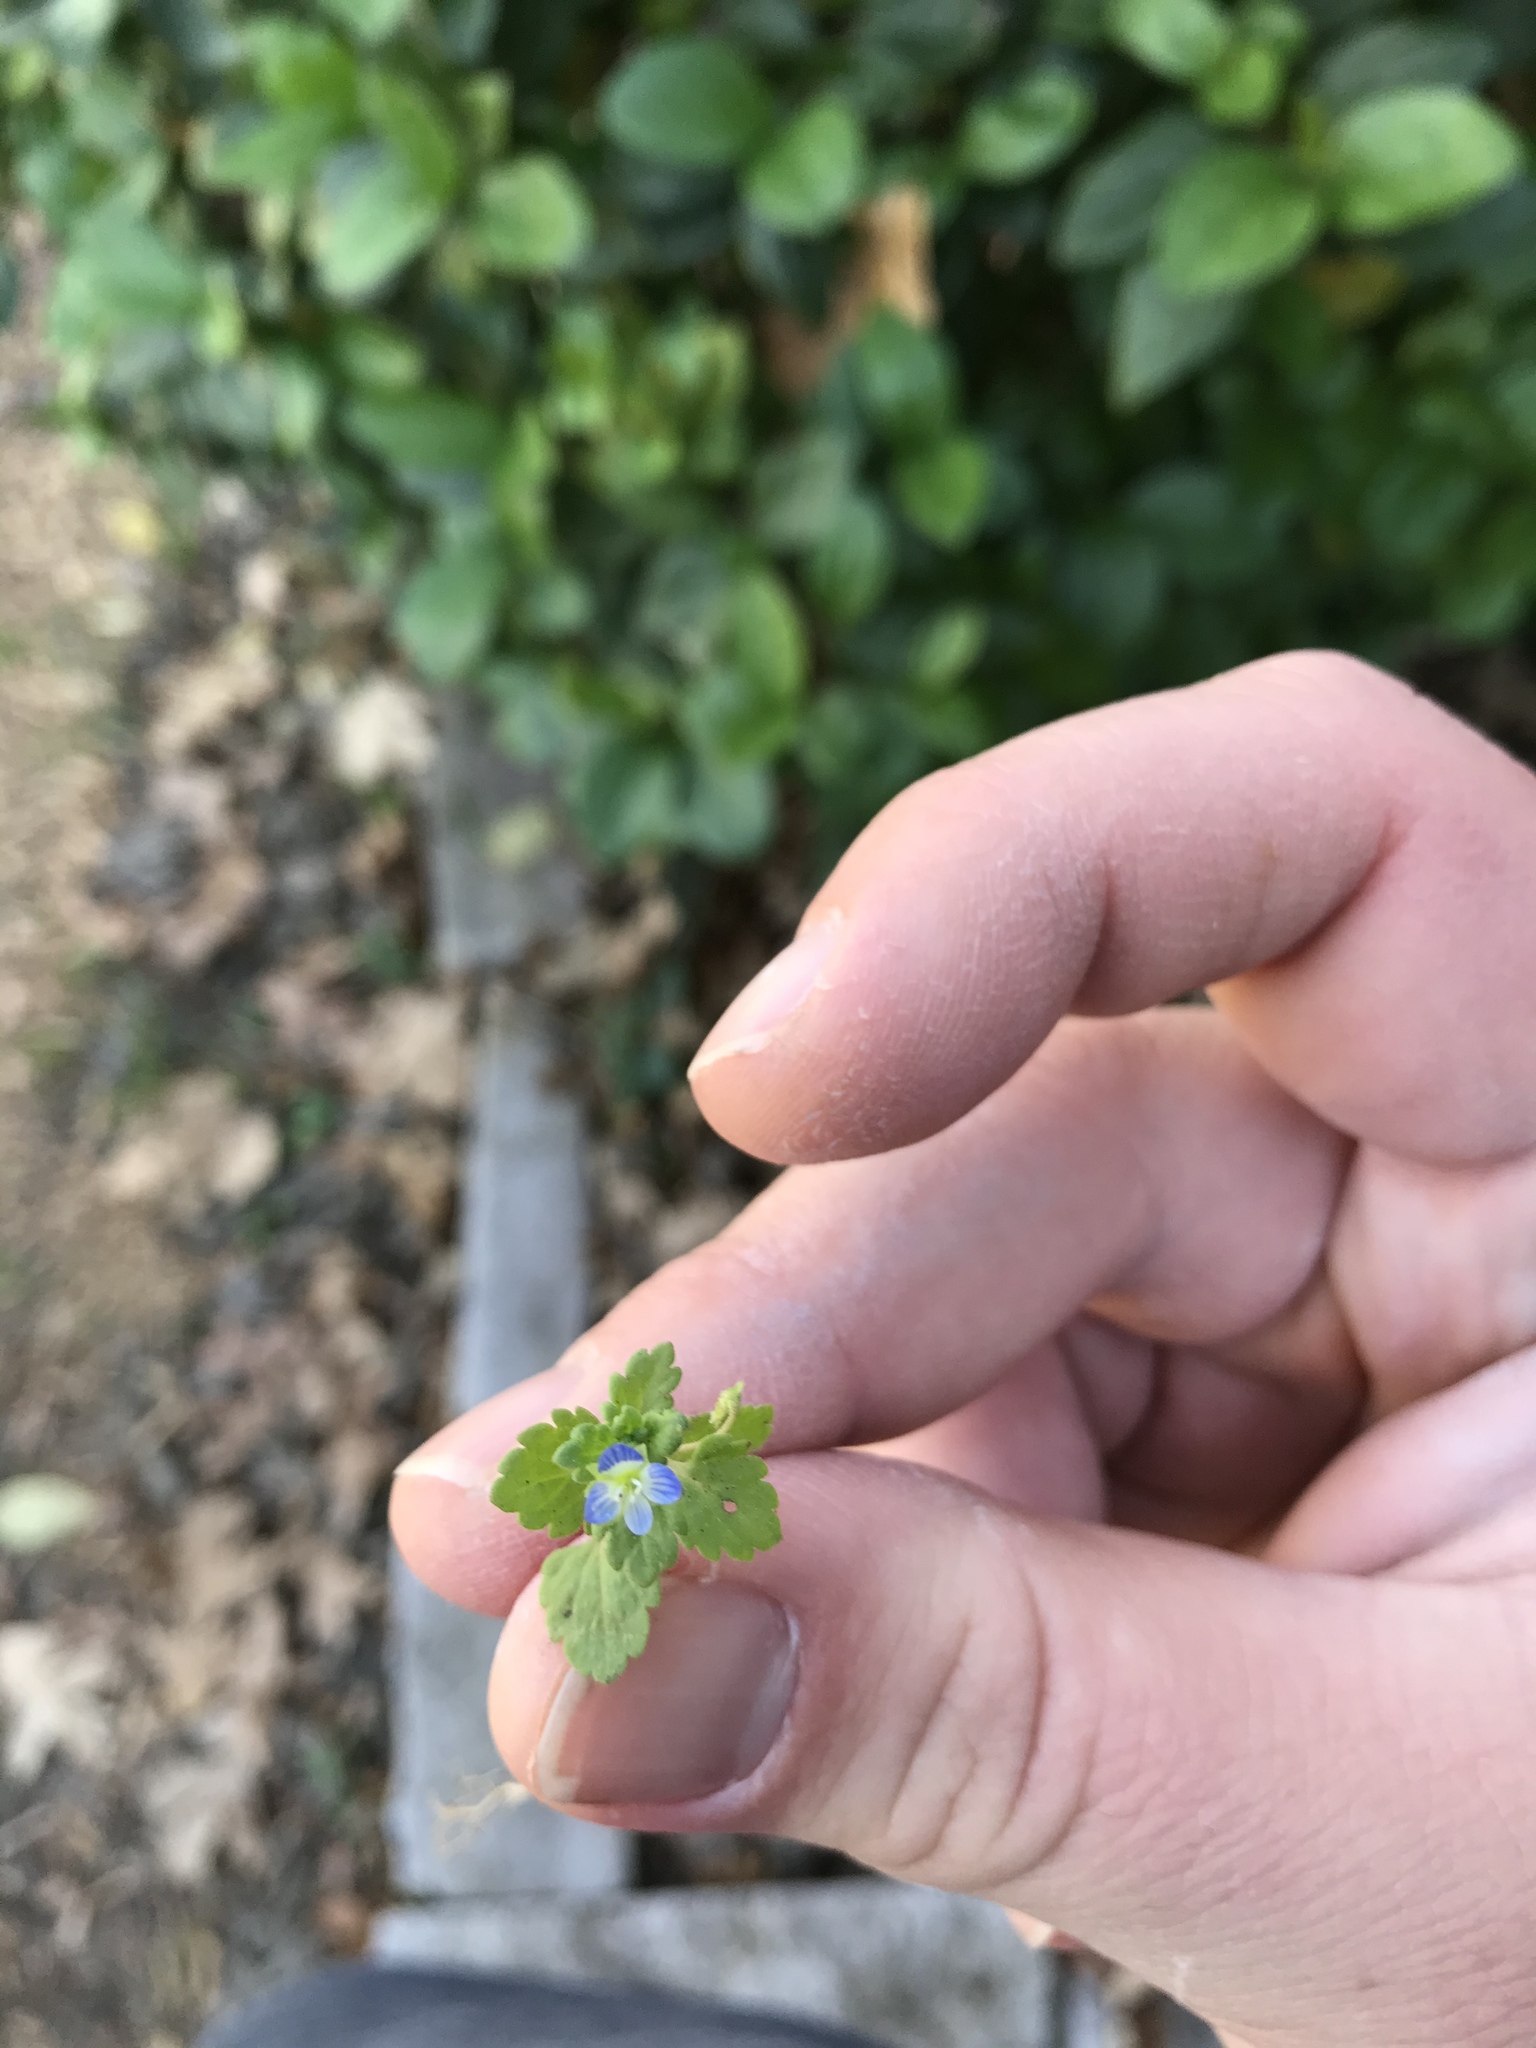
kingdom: Plantae
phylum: Tracheophyta
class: Magnoliopsida
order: Lamiales
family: Plantaginaceae
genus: Veronica
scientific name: Veronica polita
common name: Grey field-speedwell
